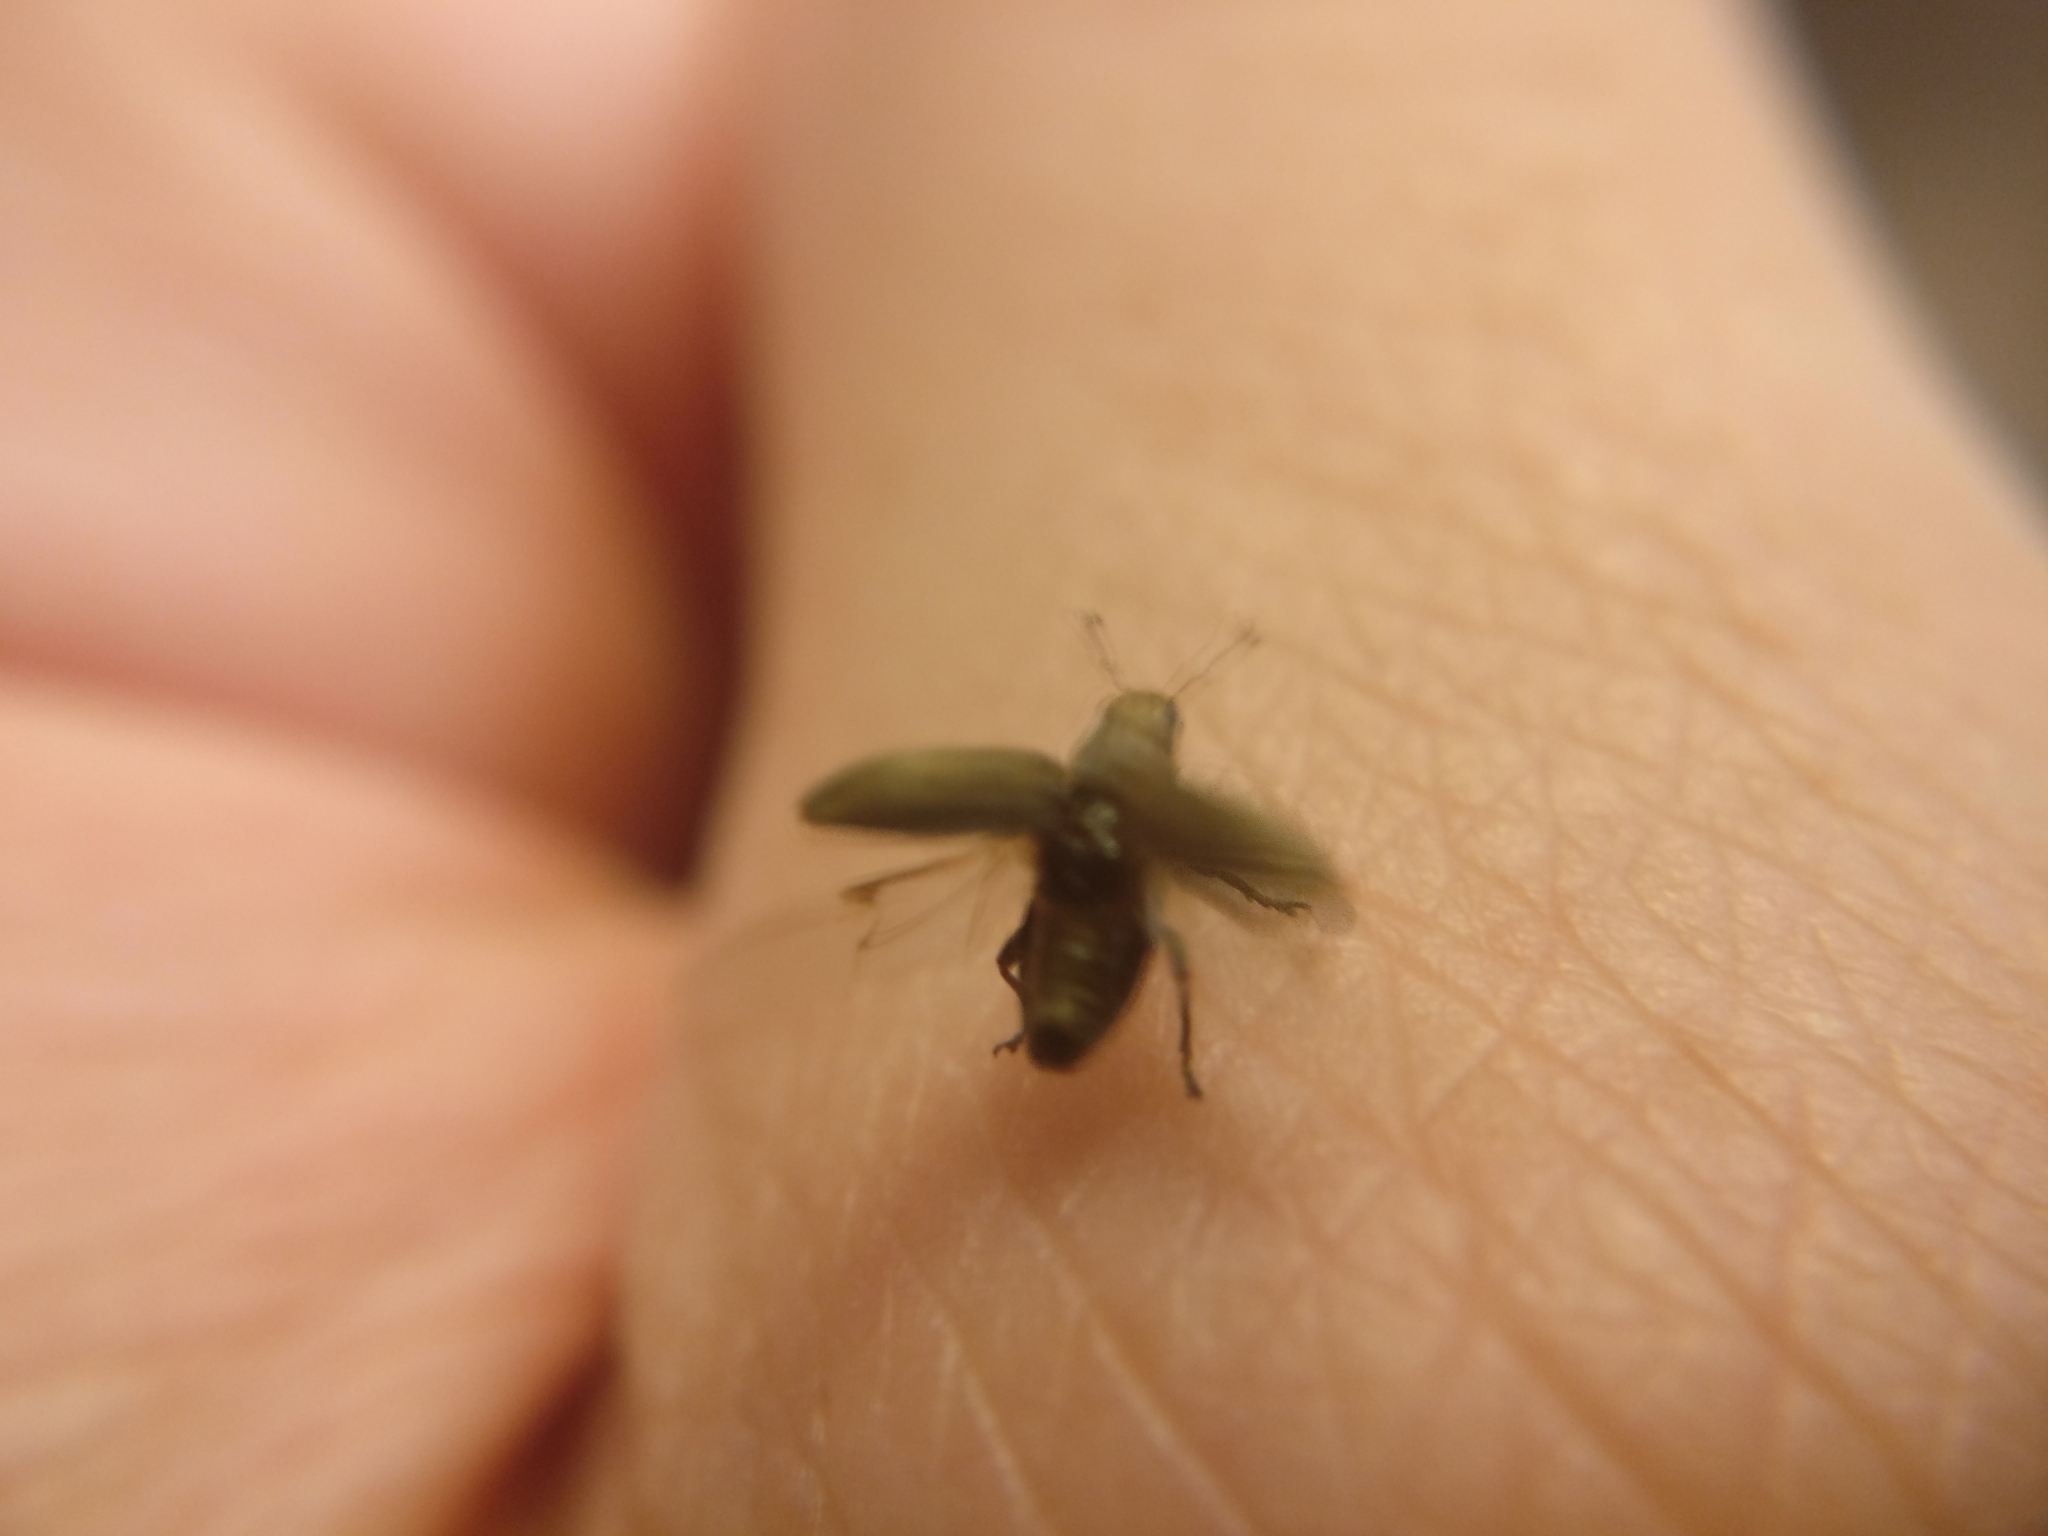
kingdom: Animalia
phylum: Arthropoda
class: Insecta
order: Coleoptera
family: Curculionidae
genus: Sitona
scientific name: Sitona obsoletus
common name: Weevil
